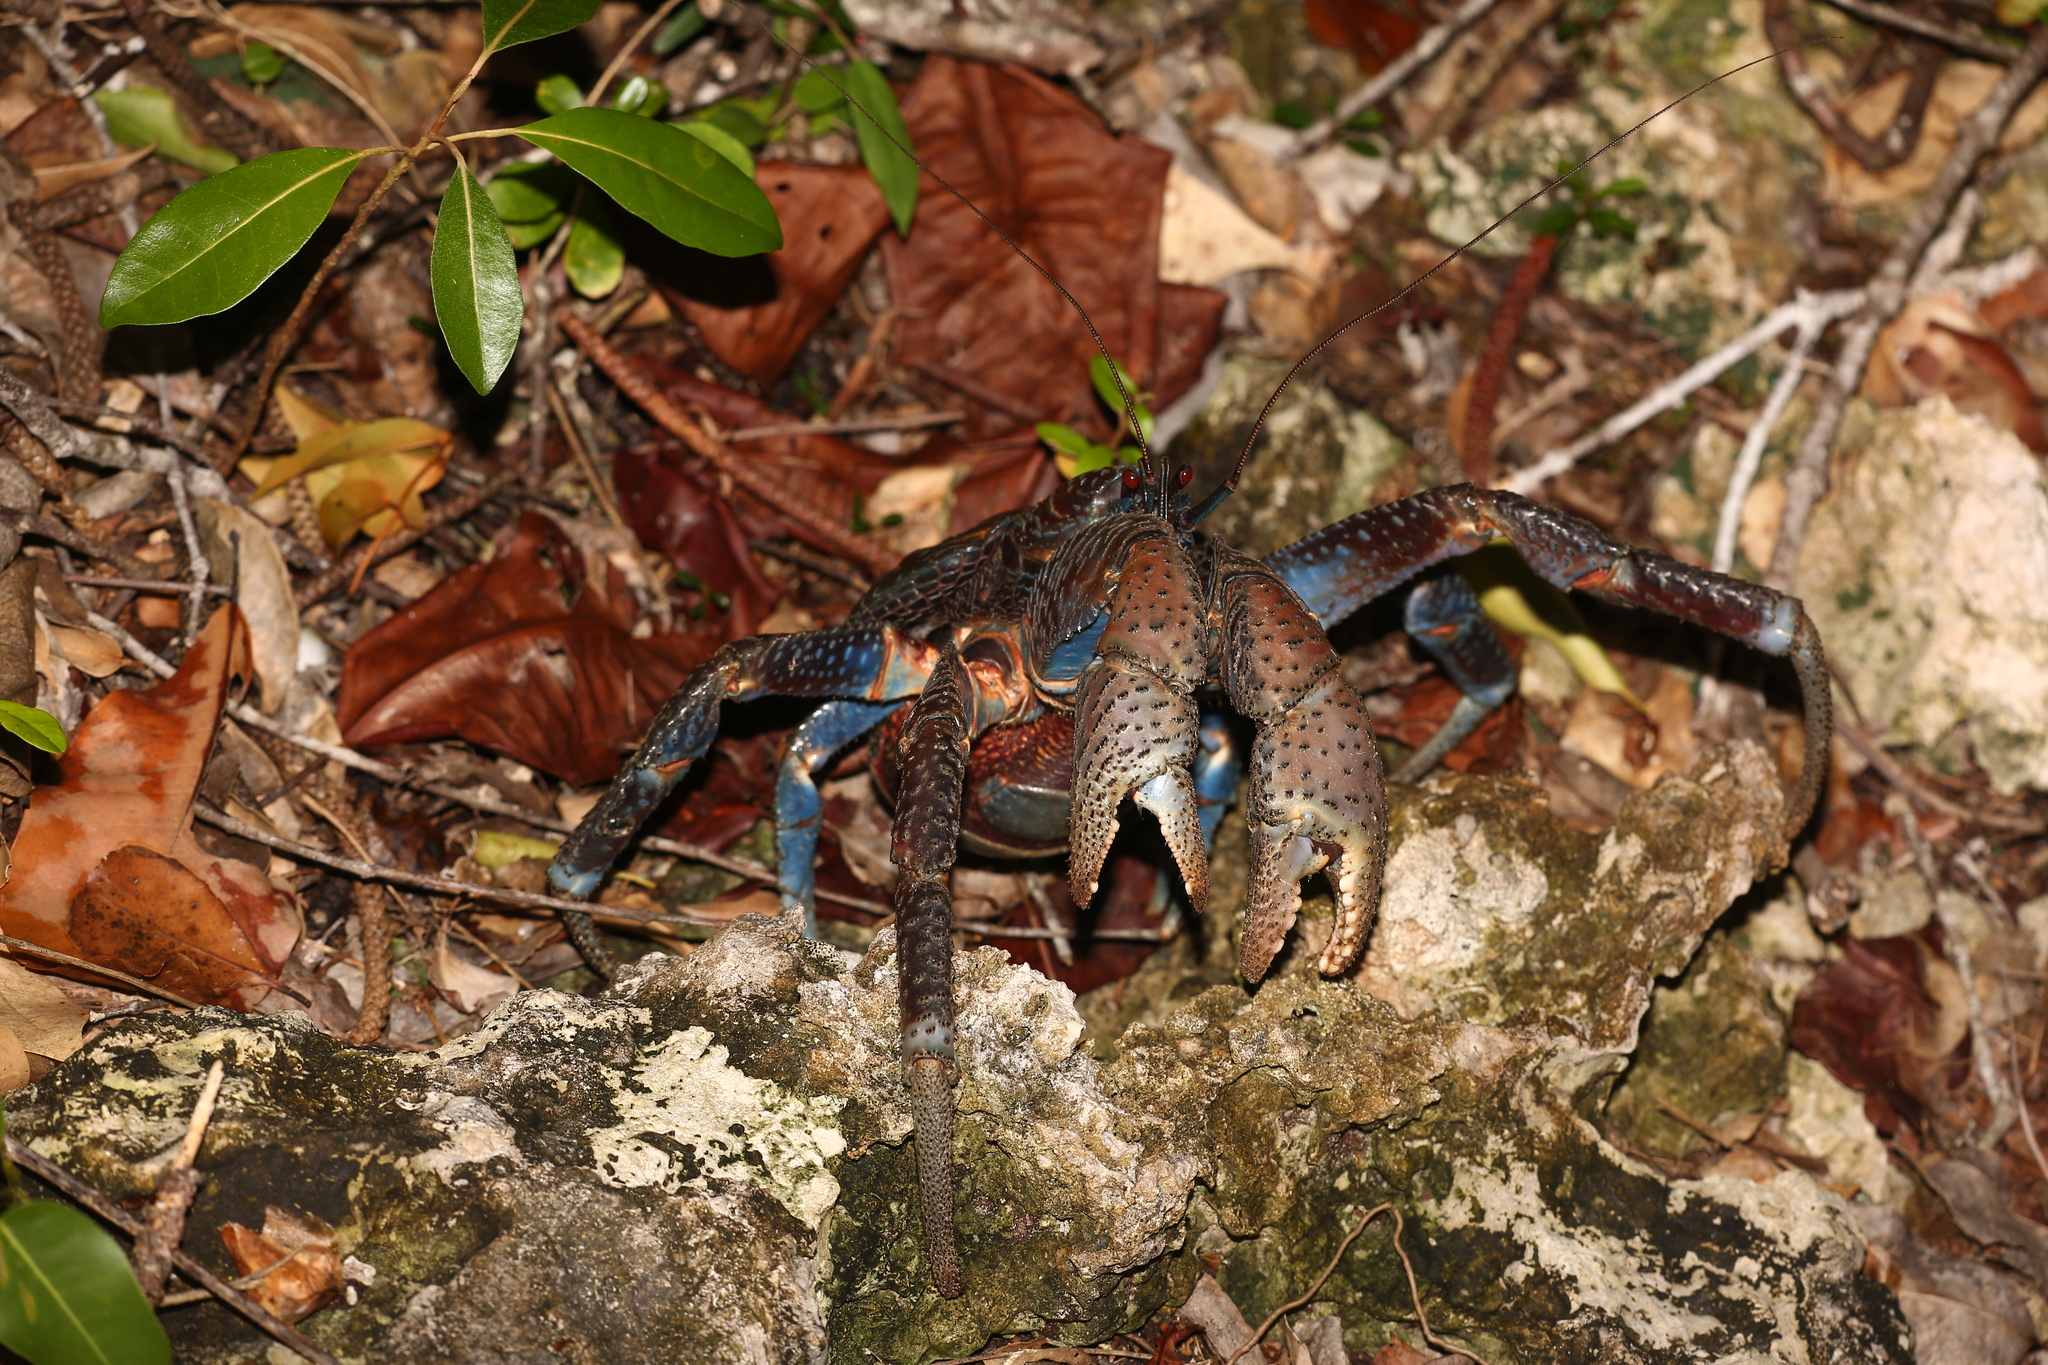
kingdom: Animalia
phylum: Arthropoda
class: Malacostraca
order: Decapoda
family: Coenobitidae
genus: Birgus
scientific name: Birgus latro
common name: Coconut crab
